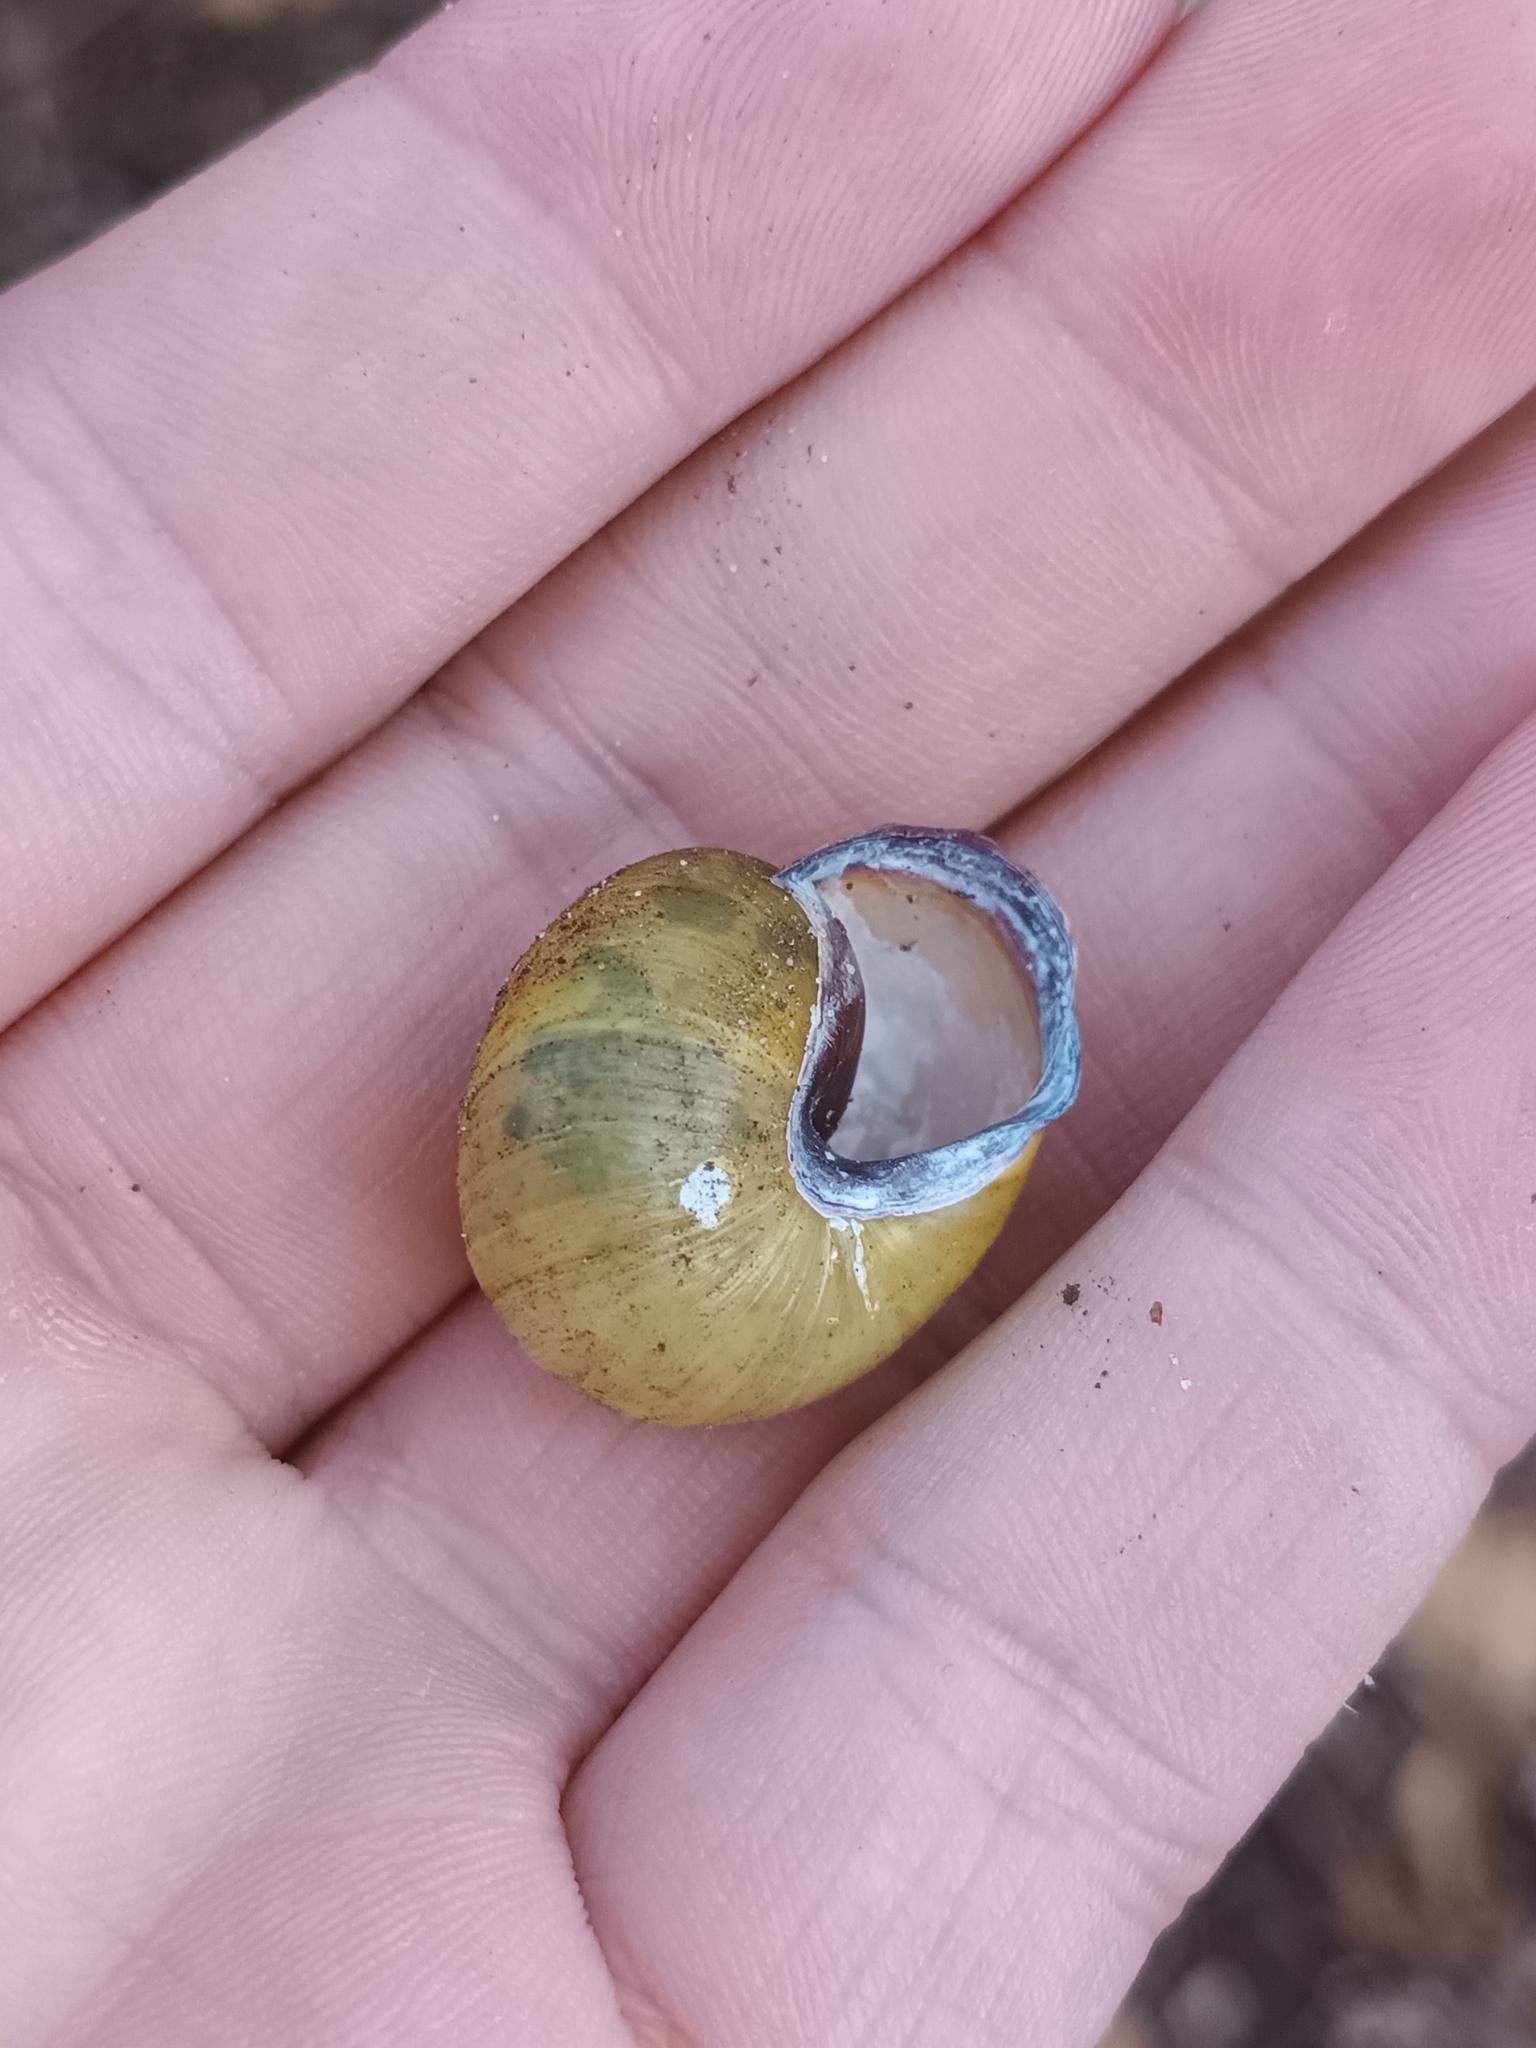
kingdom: Animalia
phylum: Mollusca
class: Gastropoda
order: Stylommatophora
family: Helicidae
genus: Cepaea
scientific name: Cepaea nemoralis
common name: Grovesnail
